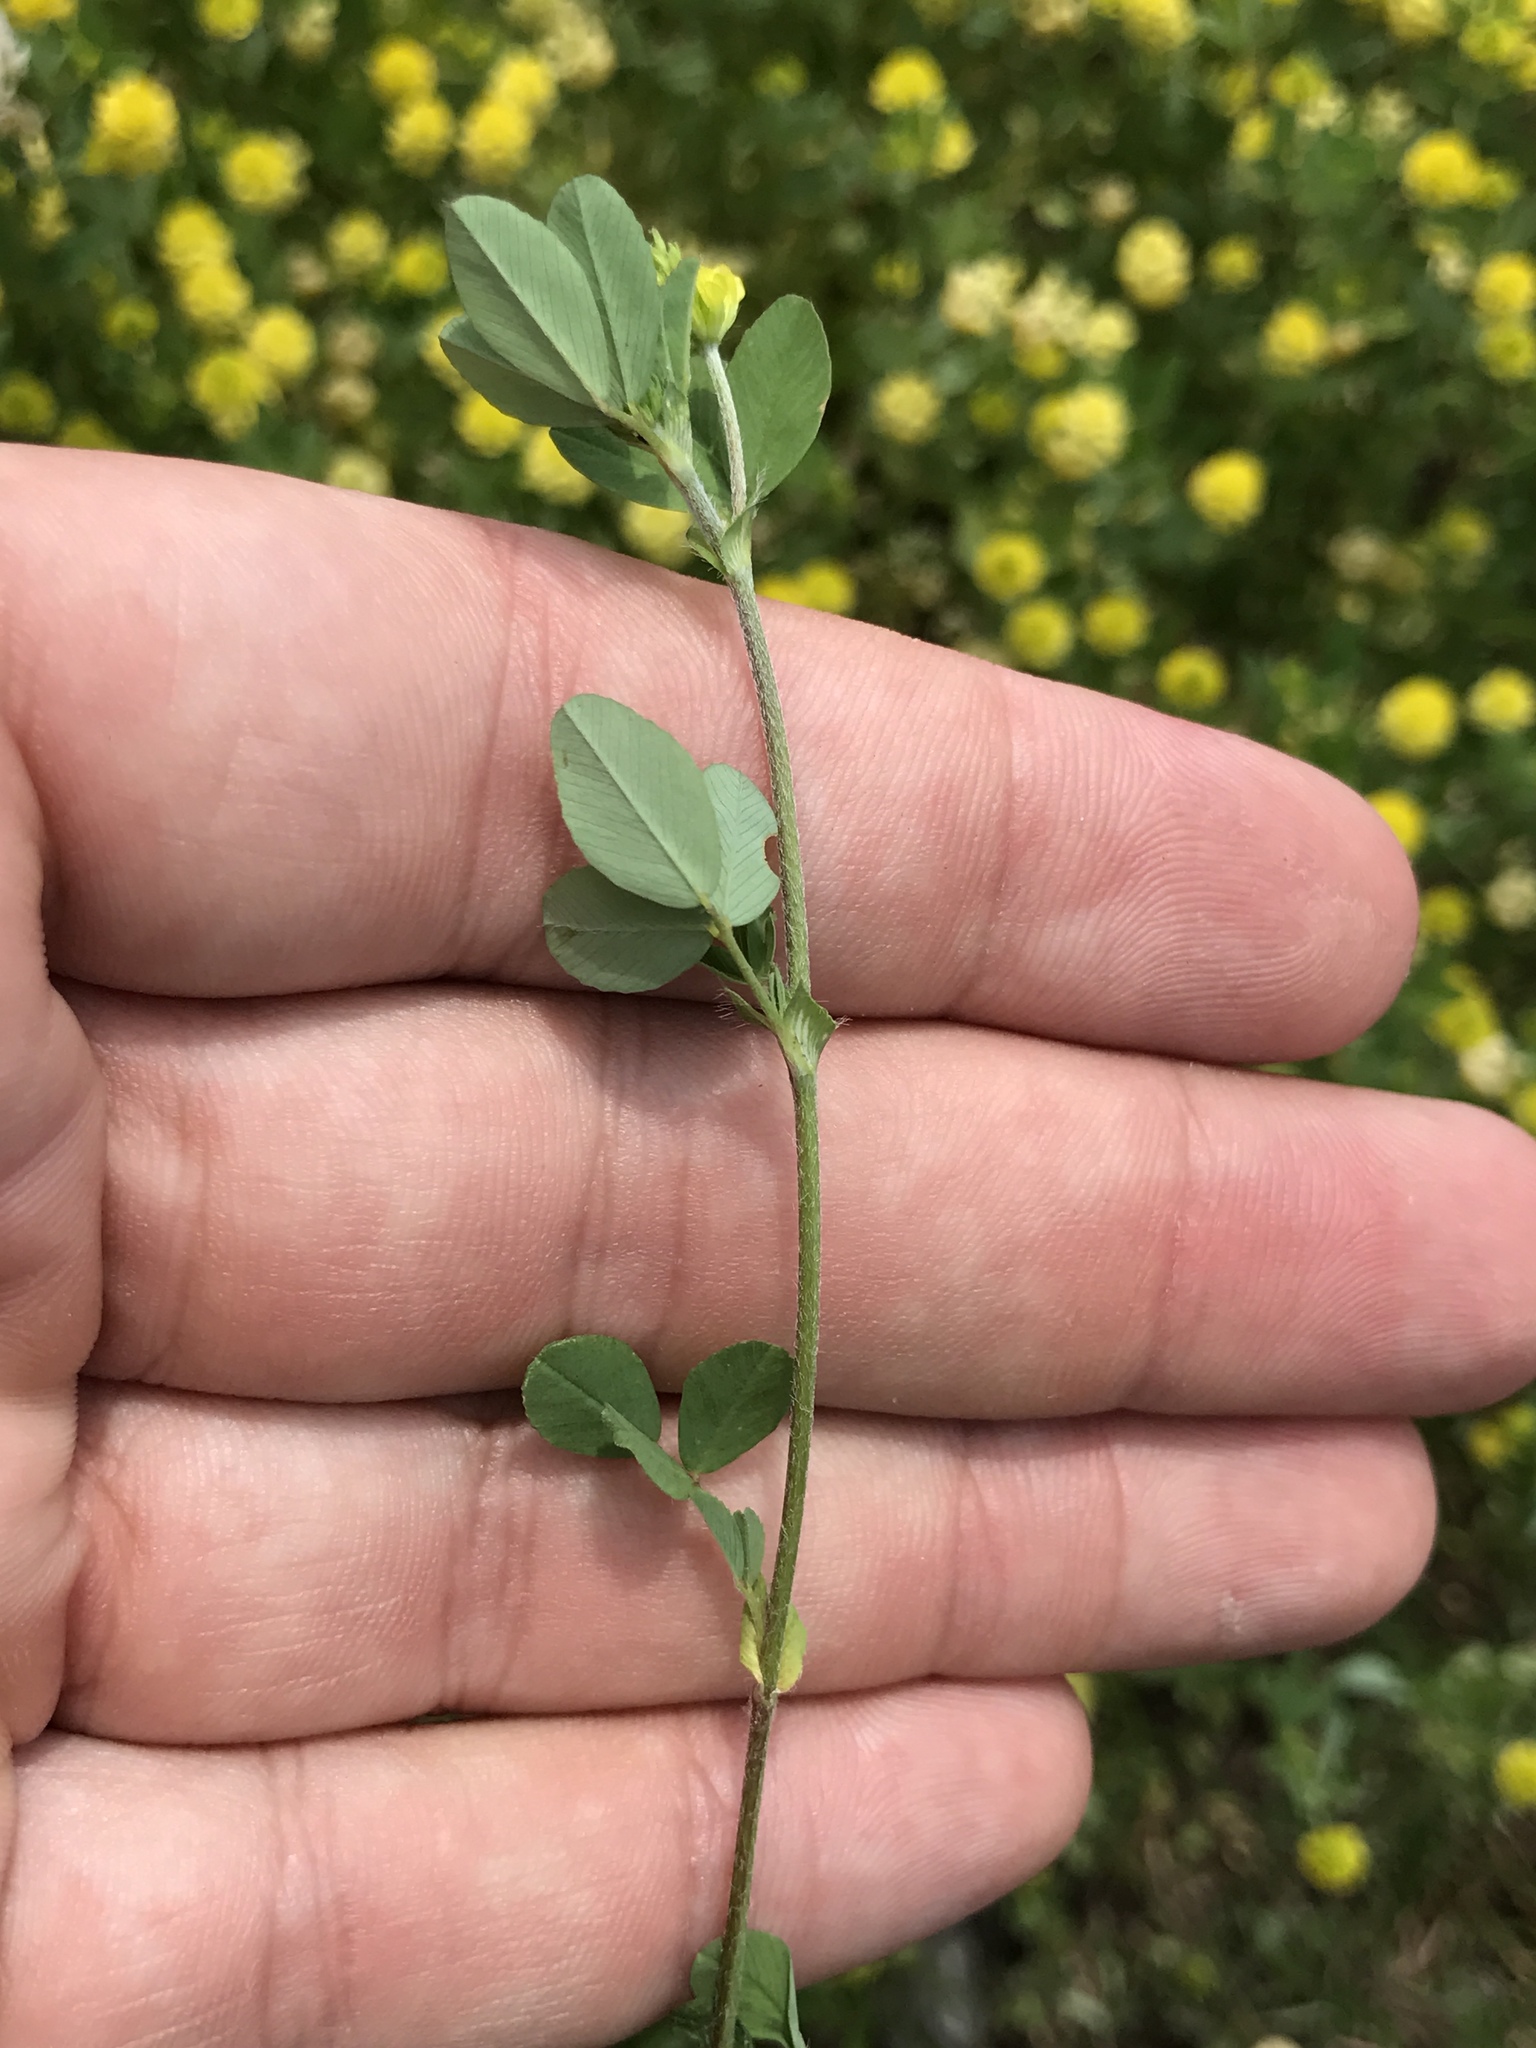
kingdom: Plantae
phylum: Tracheophyta
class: Magnoliopsida
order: Fabales
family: Fabaceae
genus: Trifolium
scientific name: Trifolium campestre
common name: Field clover
